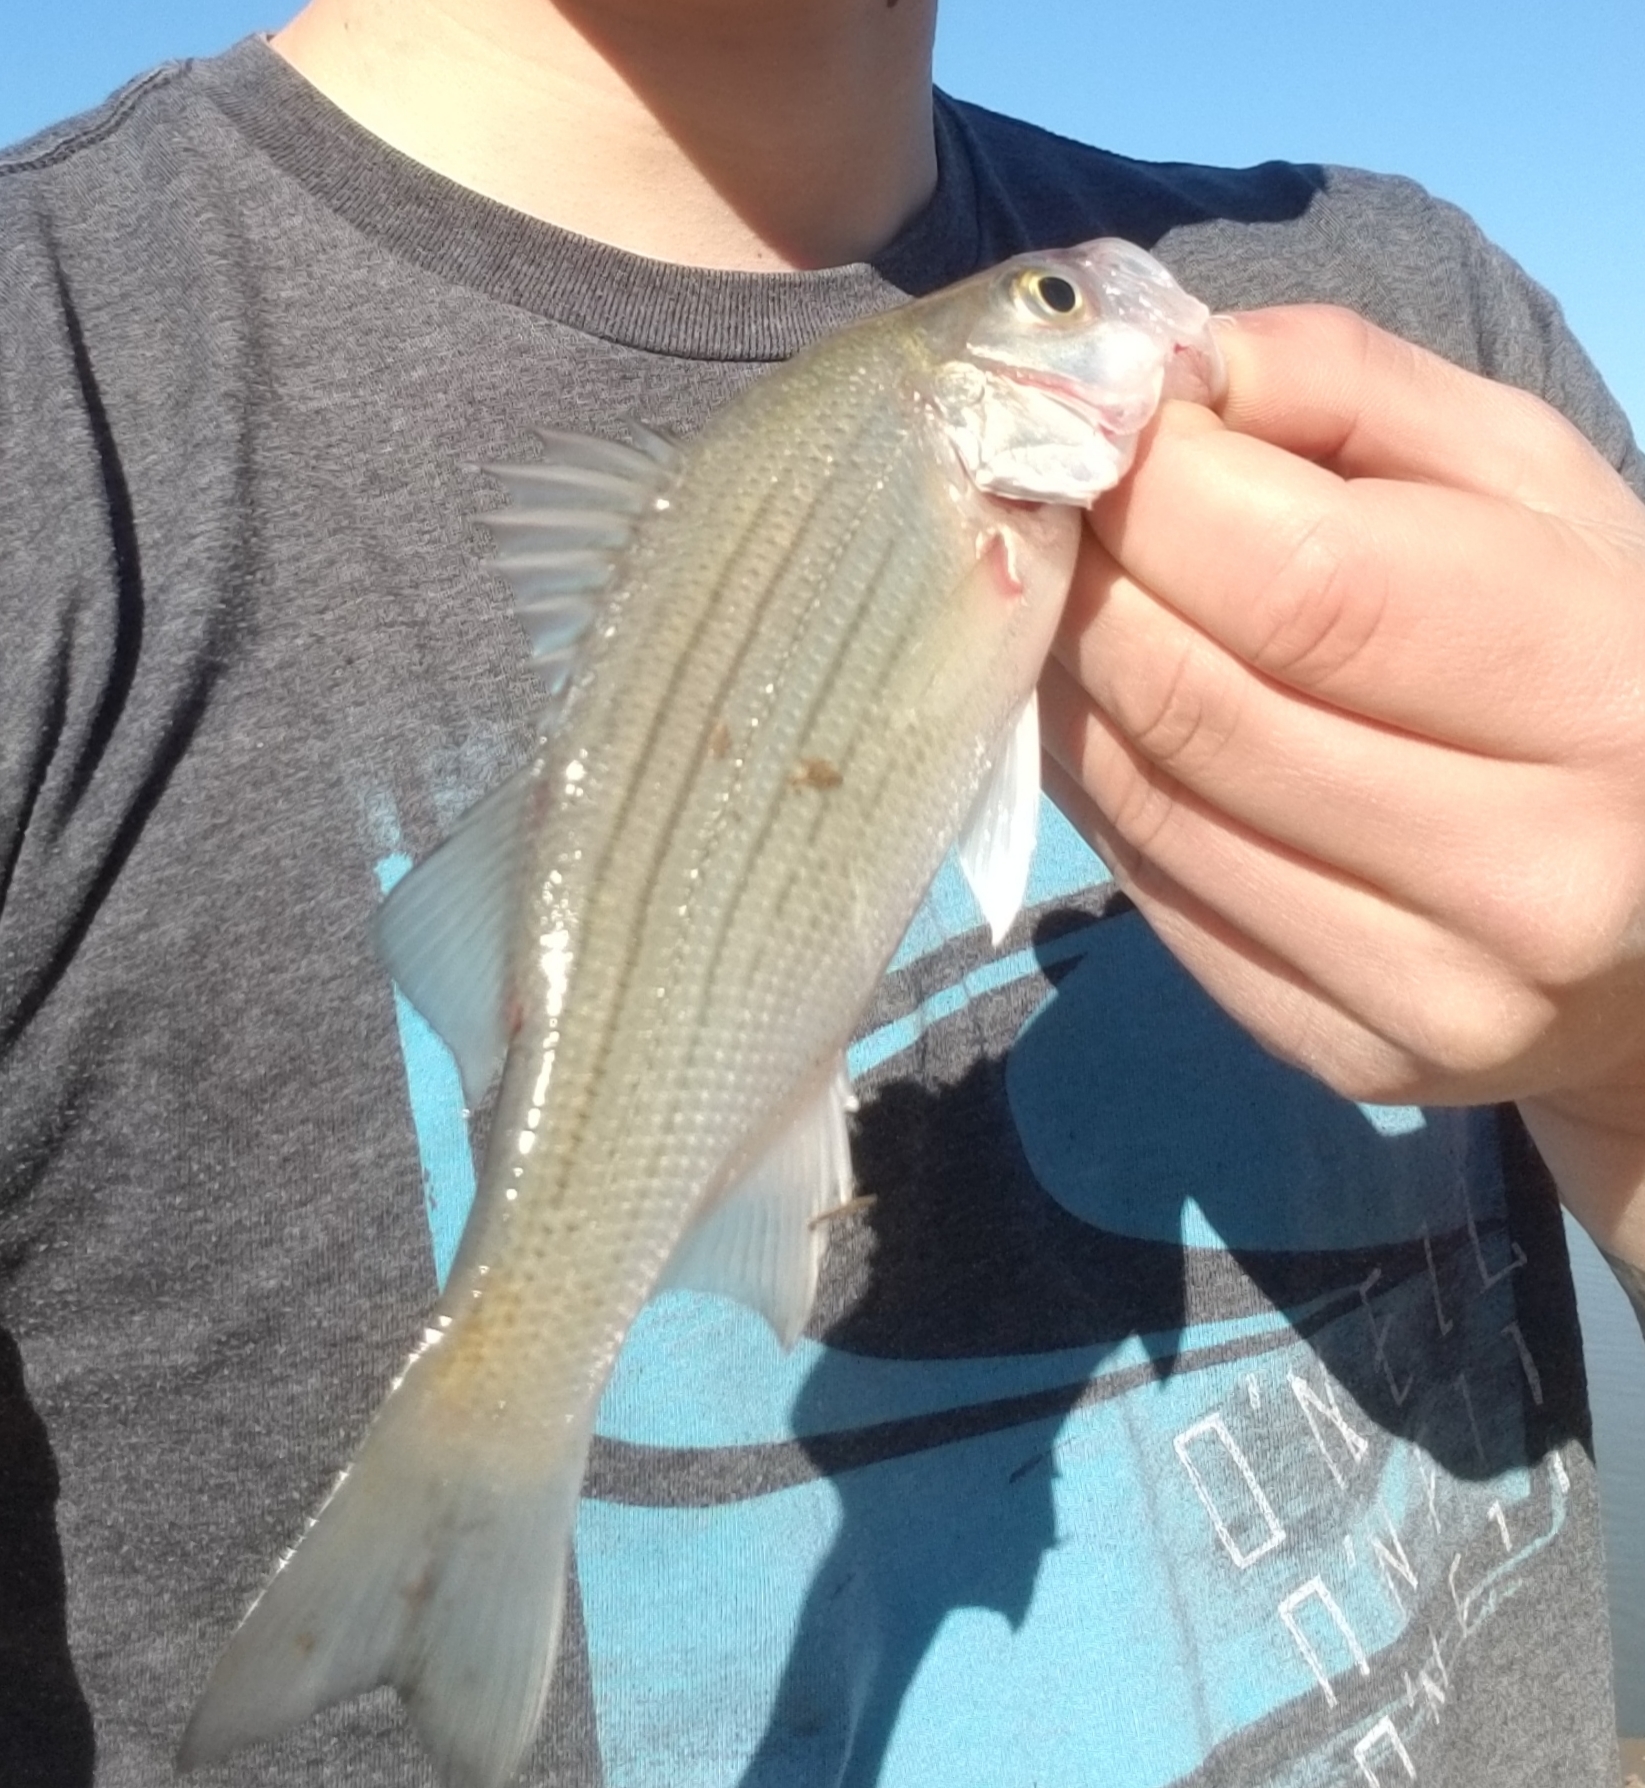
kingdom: Animalia
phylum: Chordata
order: Perciformes
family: Moronidae
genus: Morone
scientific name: Morone mississippiensis
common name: Yellow bass
